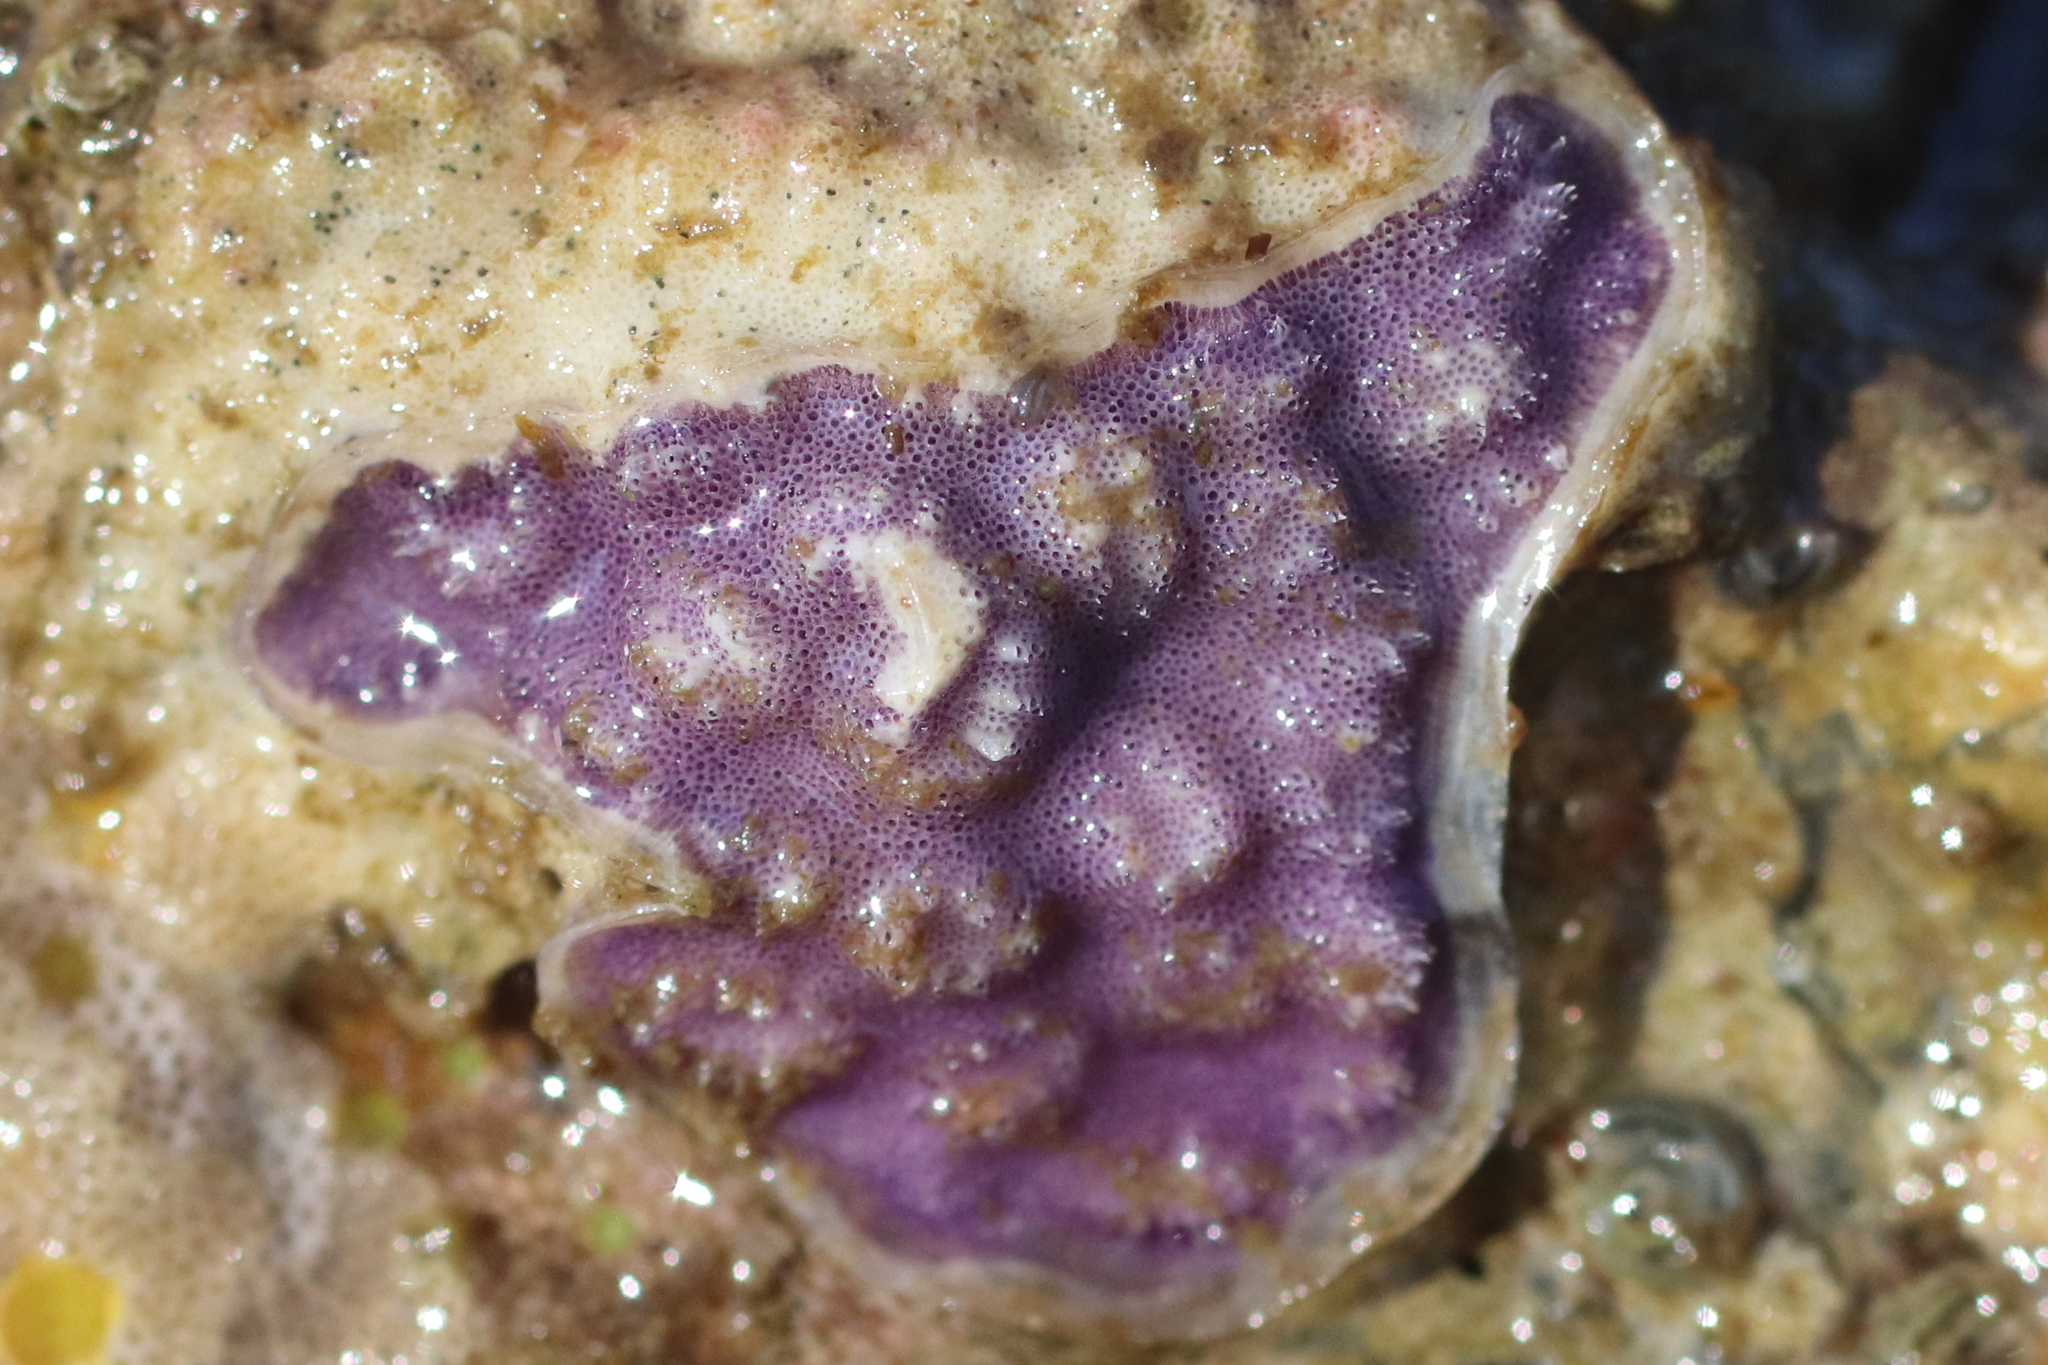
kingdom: Animalia
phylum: Bryozoa
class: Stenolaemata
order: Cyclostomatida
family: Lichenoporidae
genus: Disporella
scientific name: Disporella separata
